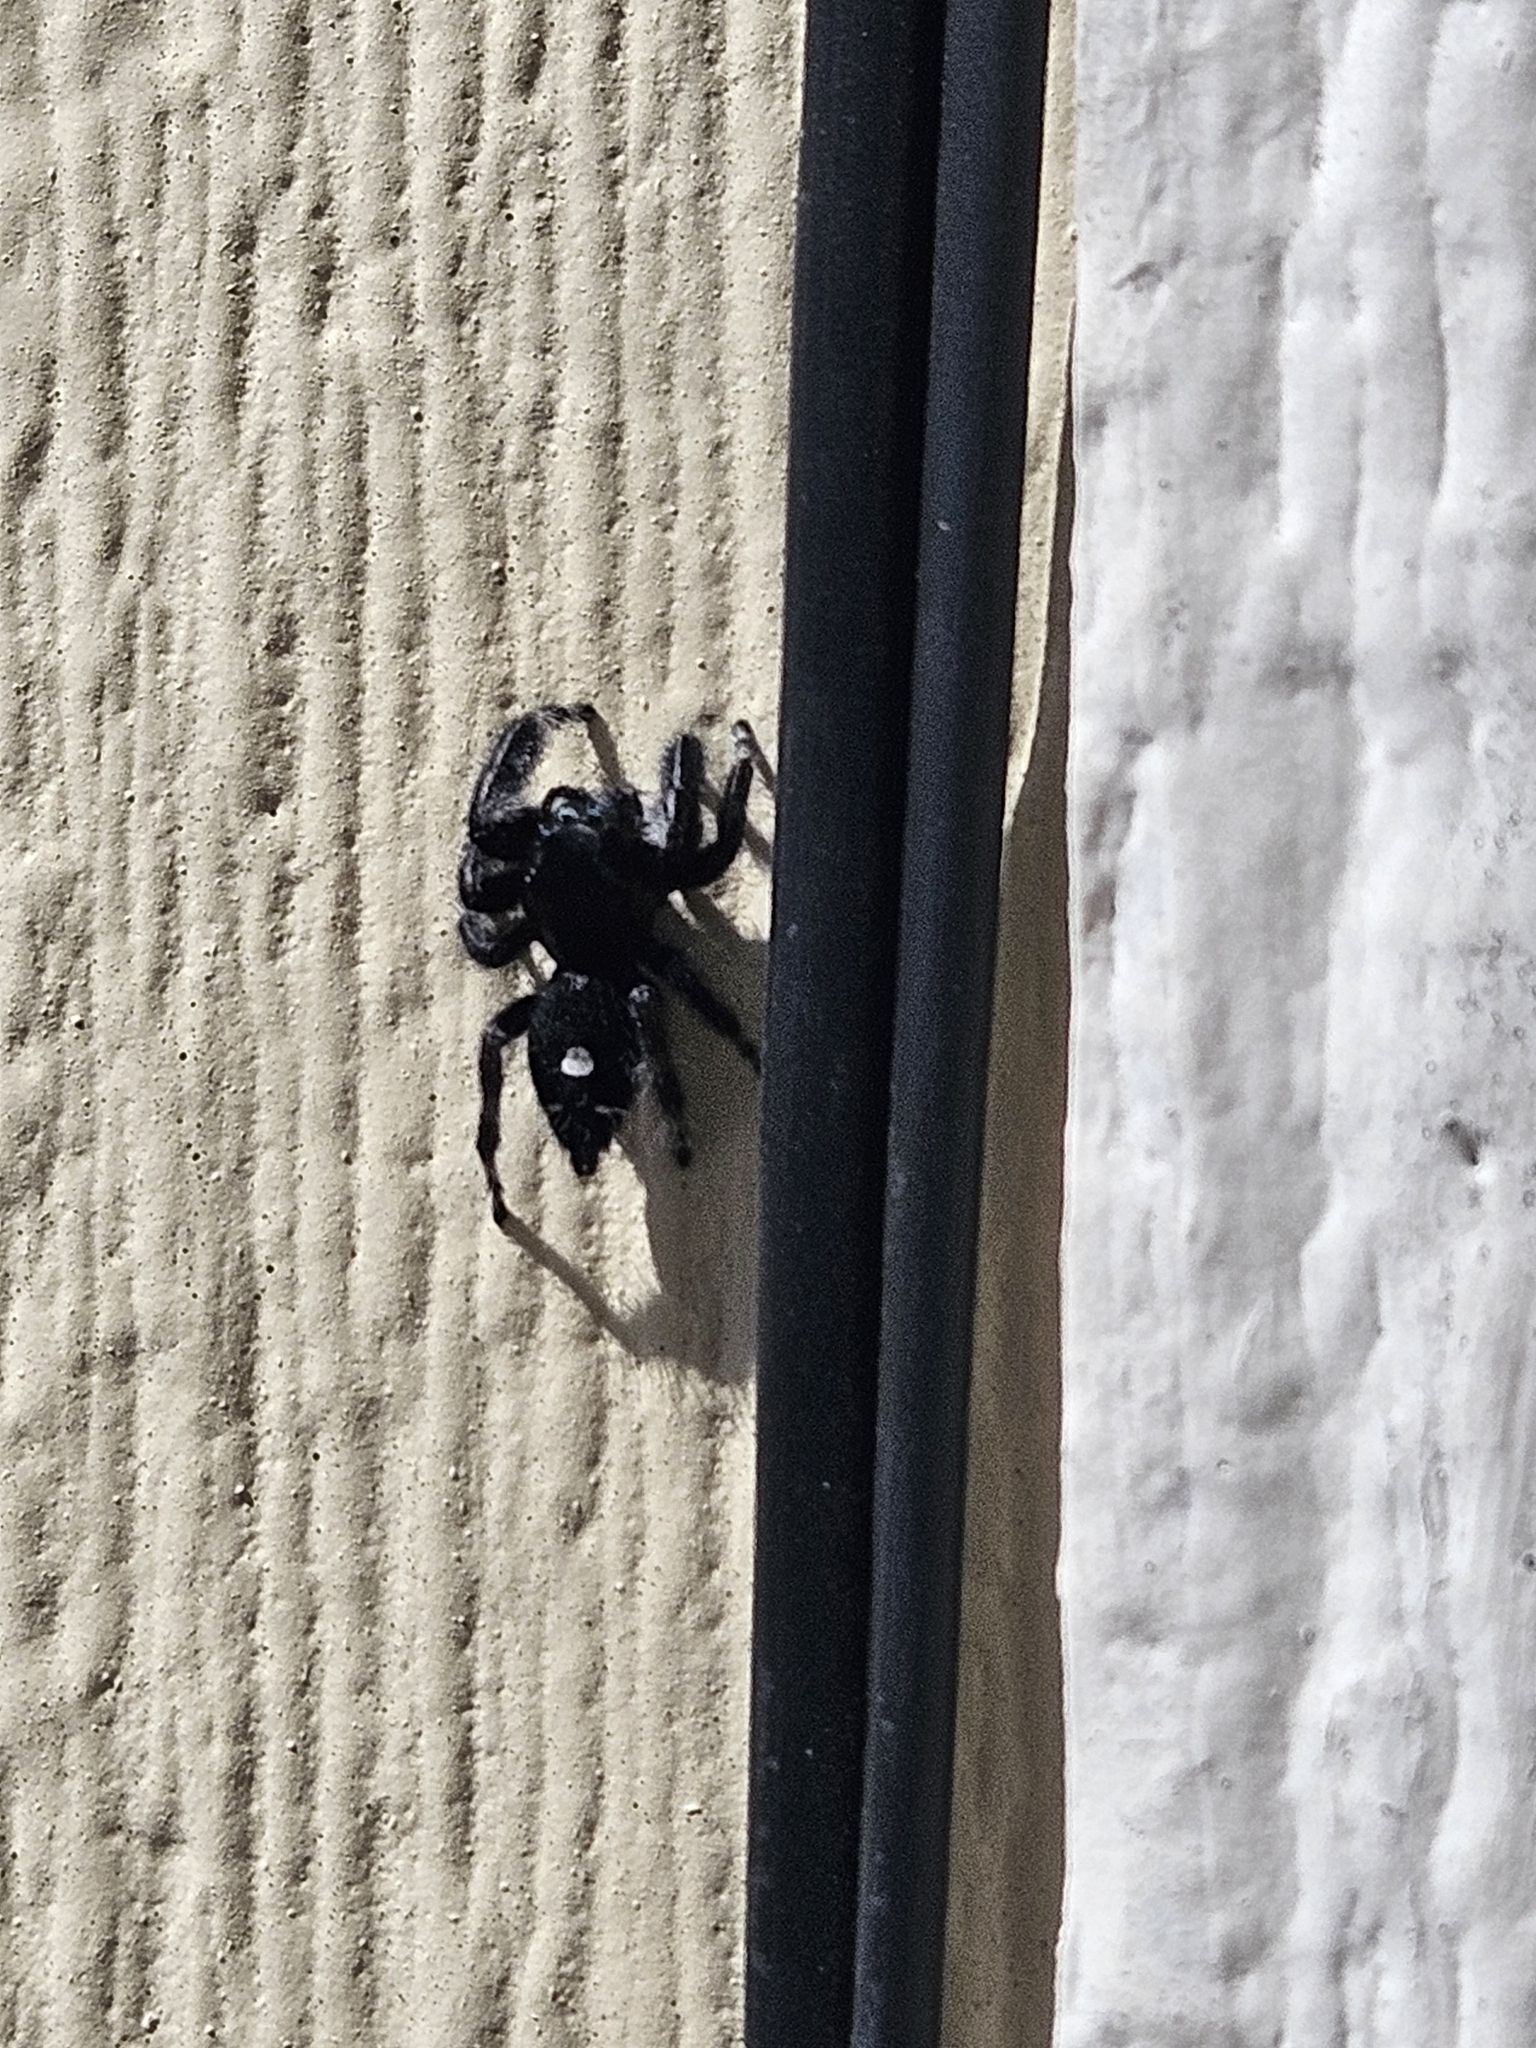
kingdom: Animalia
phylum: Arthropoda
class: Arachnida
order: Araneae
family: Salticidae
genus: Phidippus
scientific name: Phidippus audax
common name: Bold jumper
